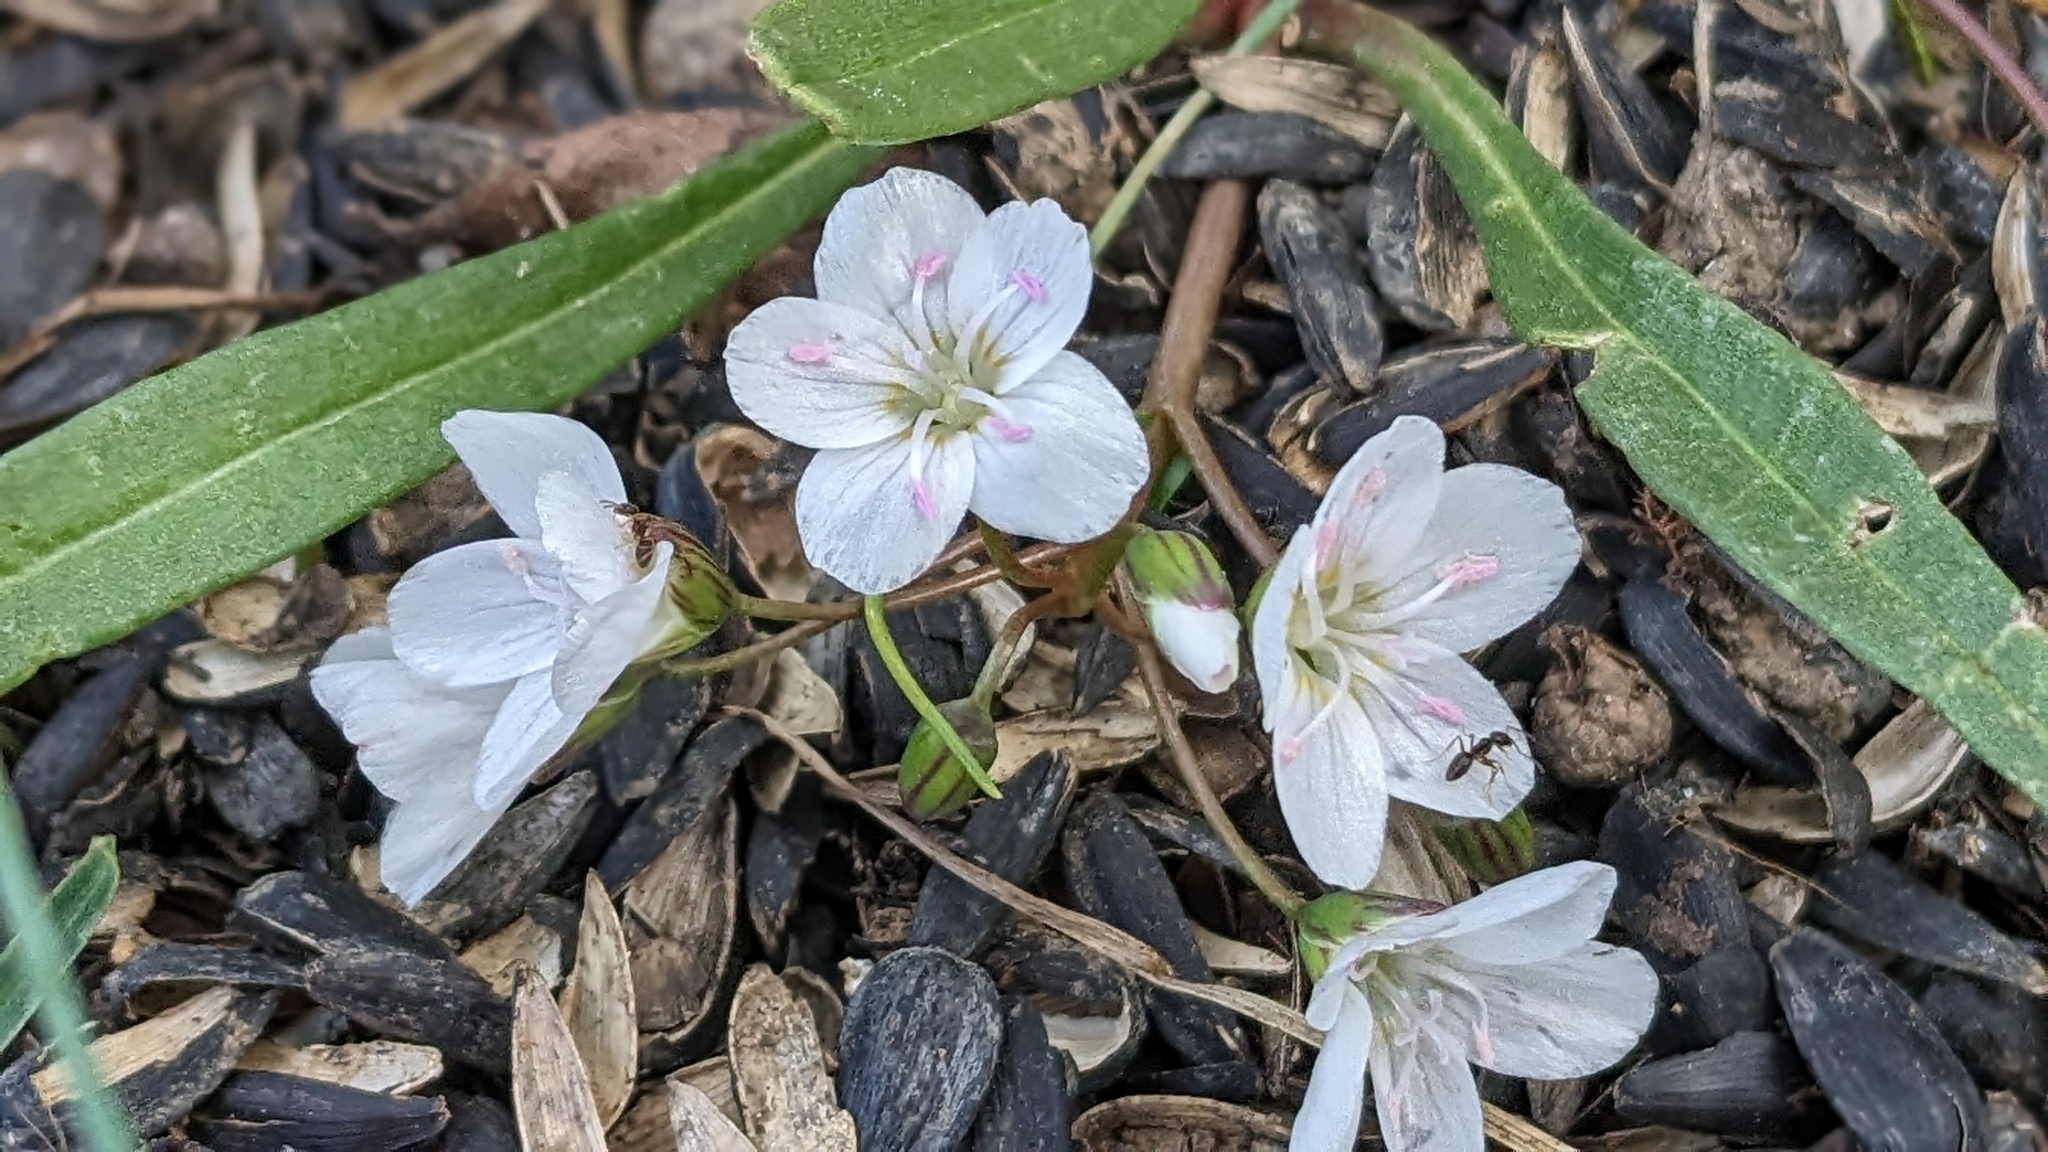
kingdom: Plantae
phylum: Tracheophyta
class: Magnoliopsida
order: Caryophyllales
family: Montiaceae
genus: Claytonia
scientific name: Claytonia virginica
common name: Virginia springbeauty
